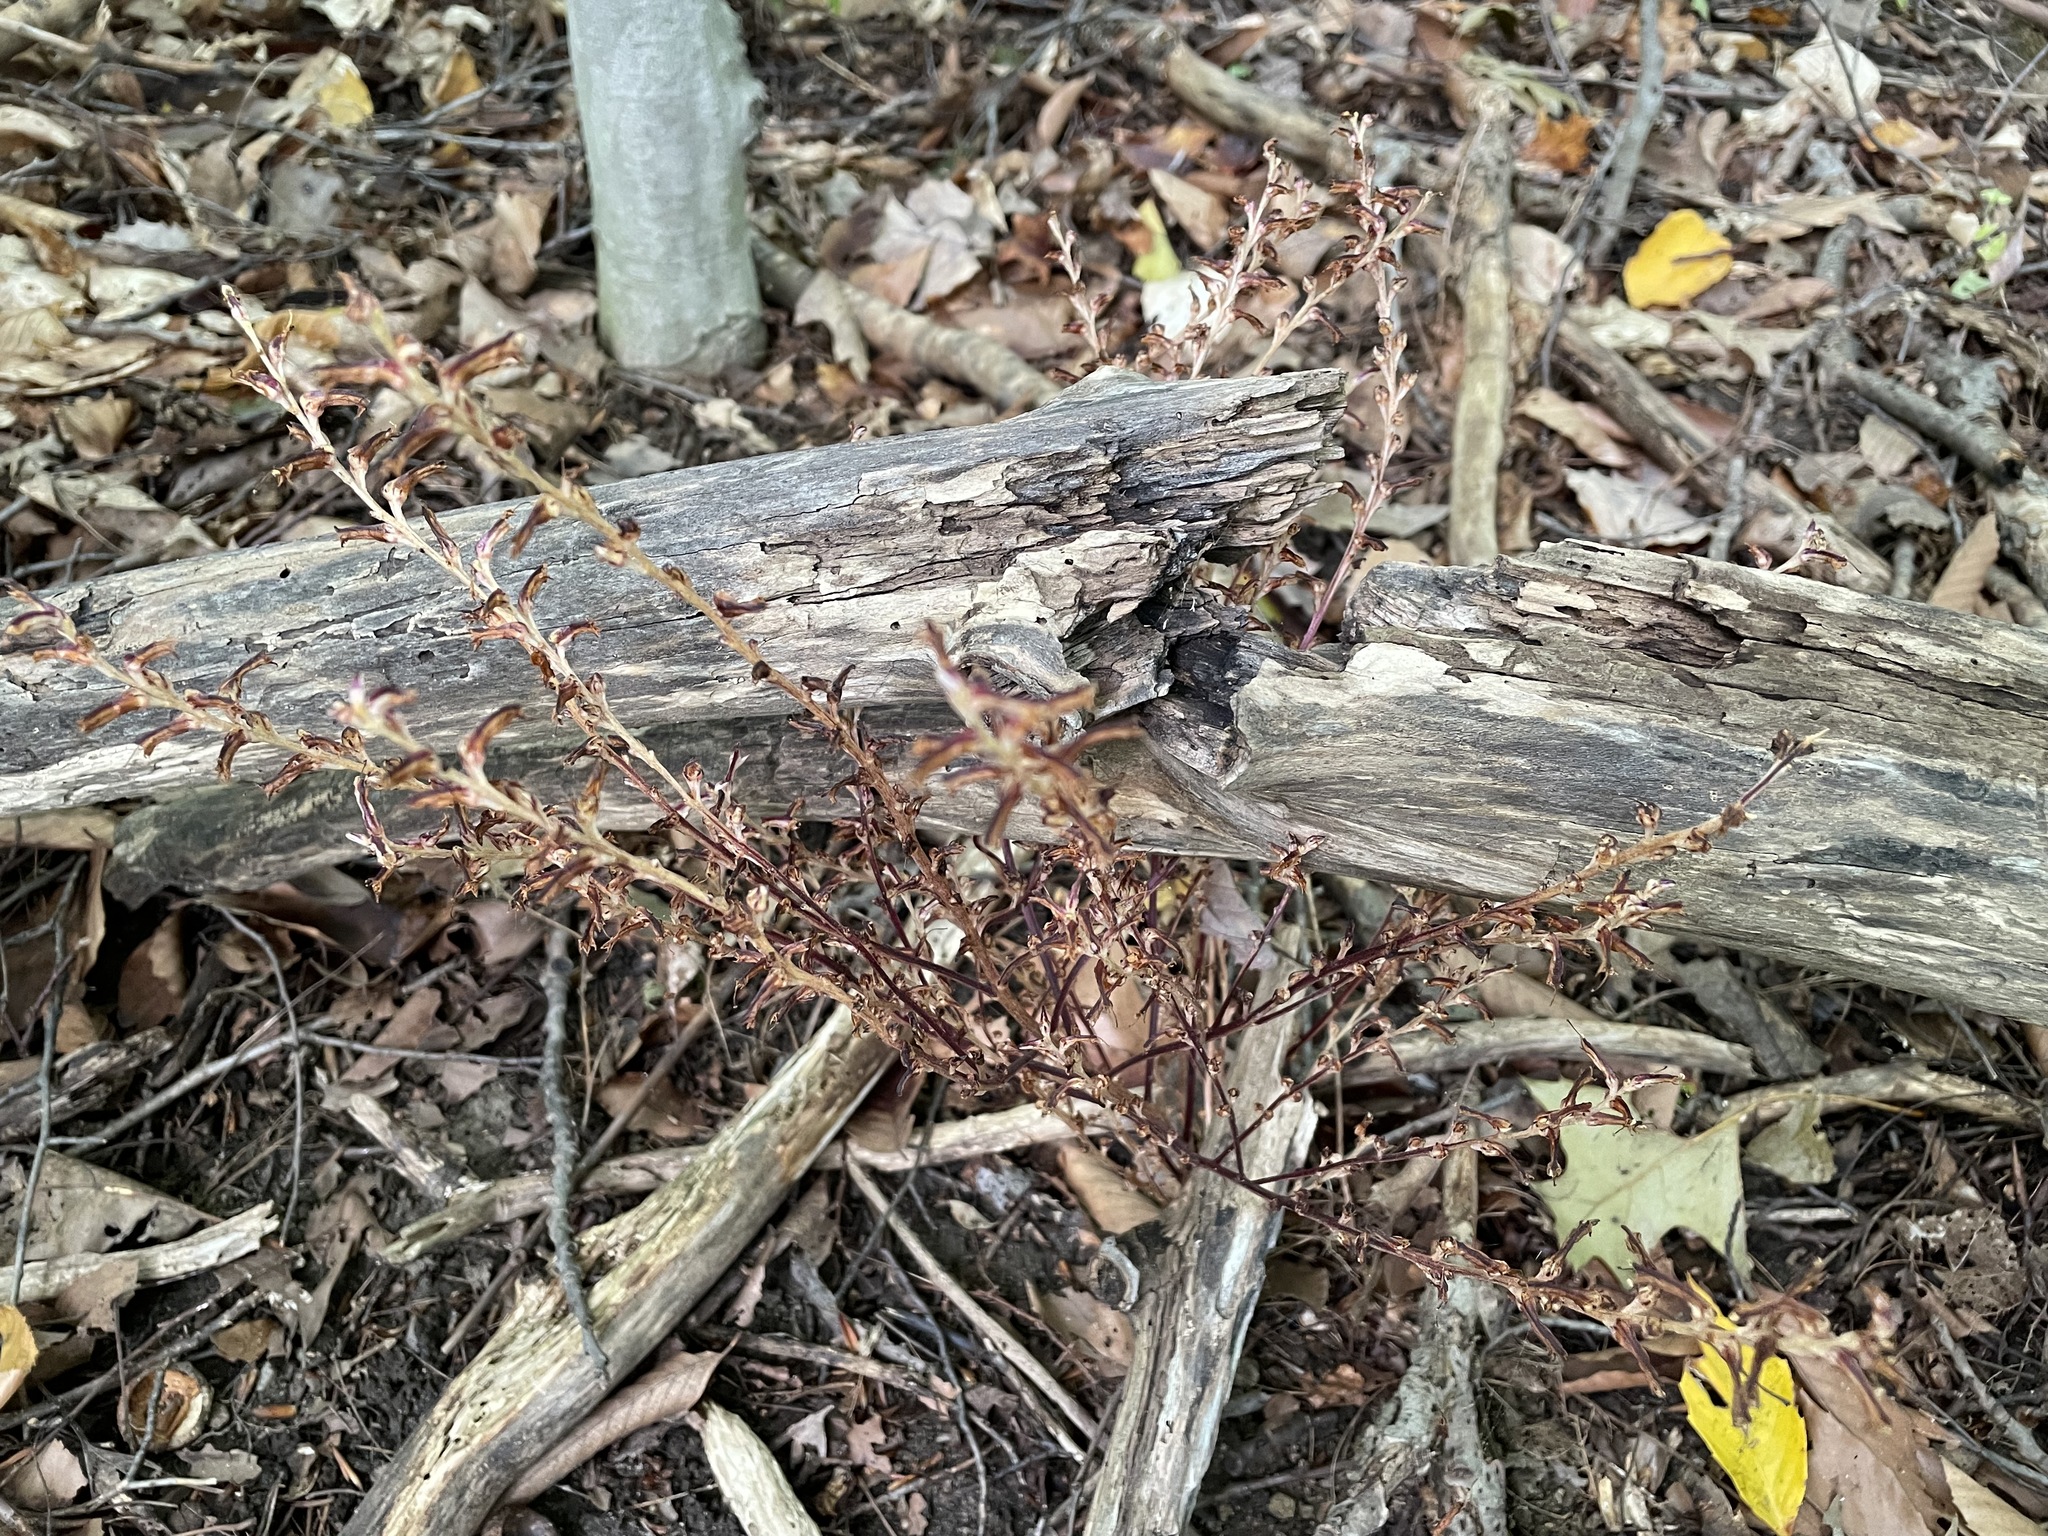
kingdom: Plantae
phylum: Tracheophyta
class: Magnoliopsida
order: Lamiales
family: Orobanchaceae
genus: Epifagus
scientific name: Epifagus virginiana
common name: Beechdrops
